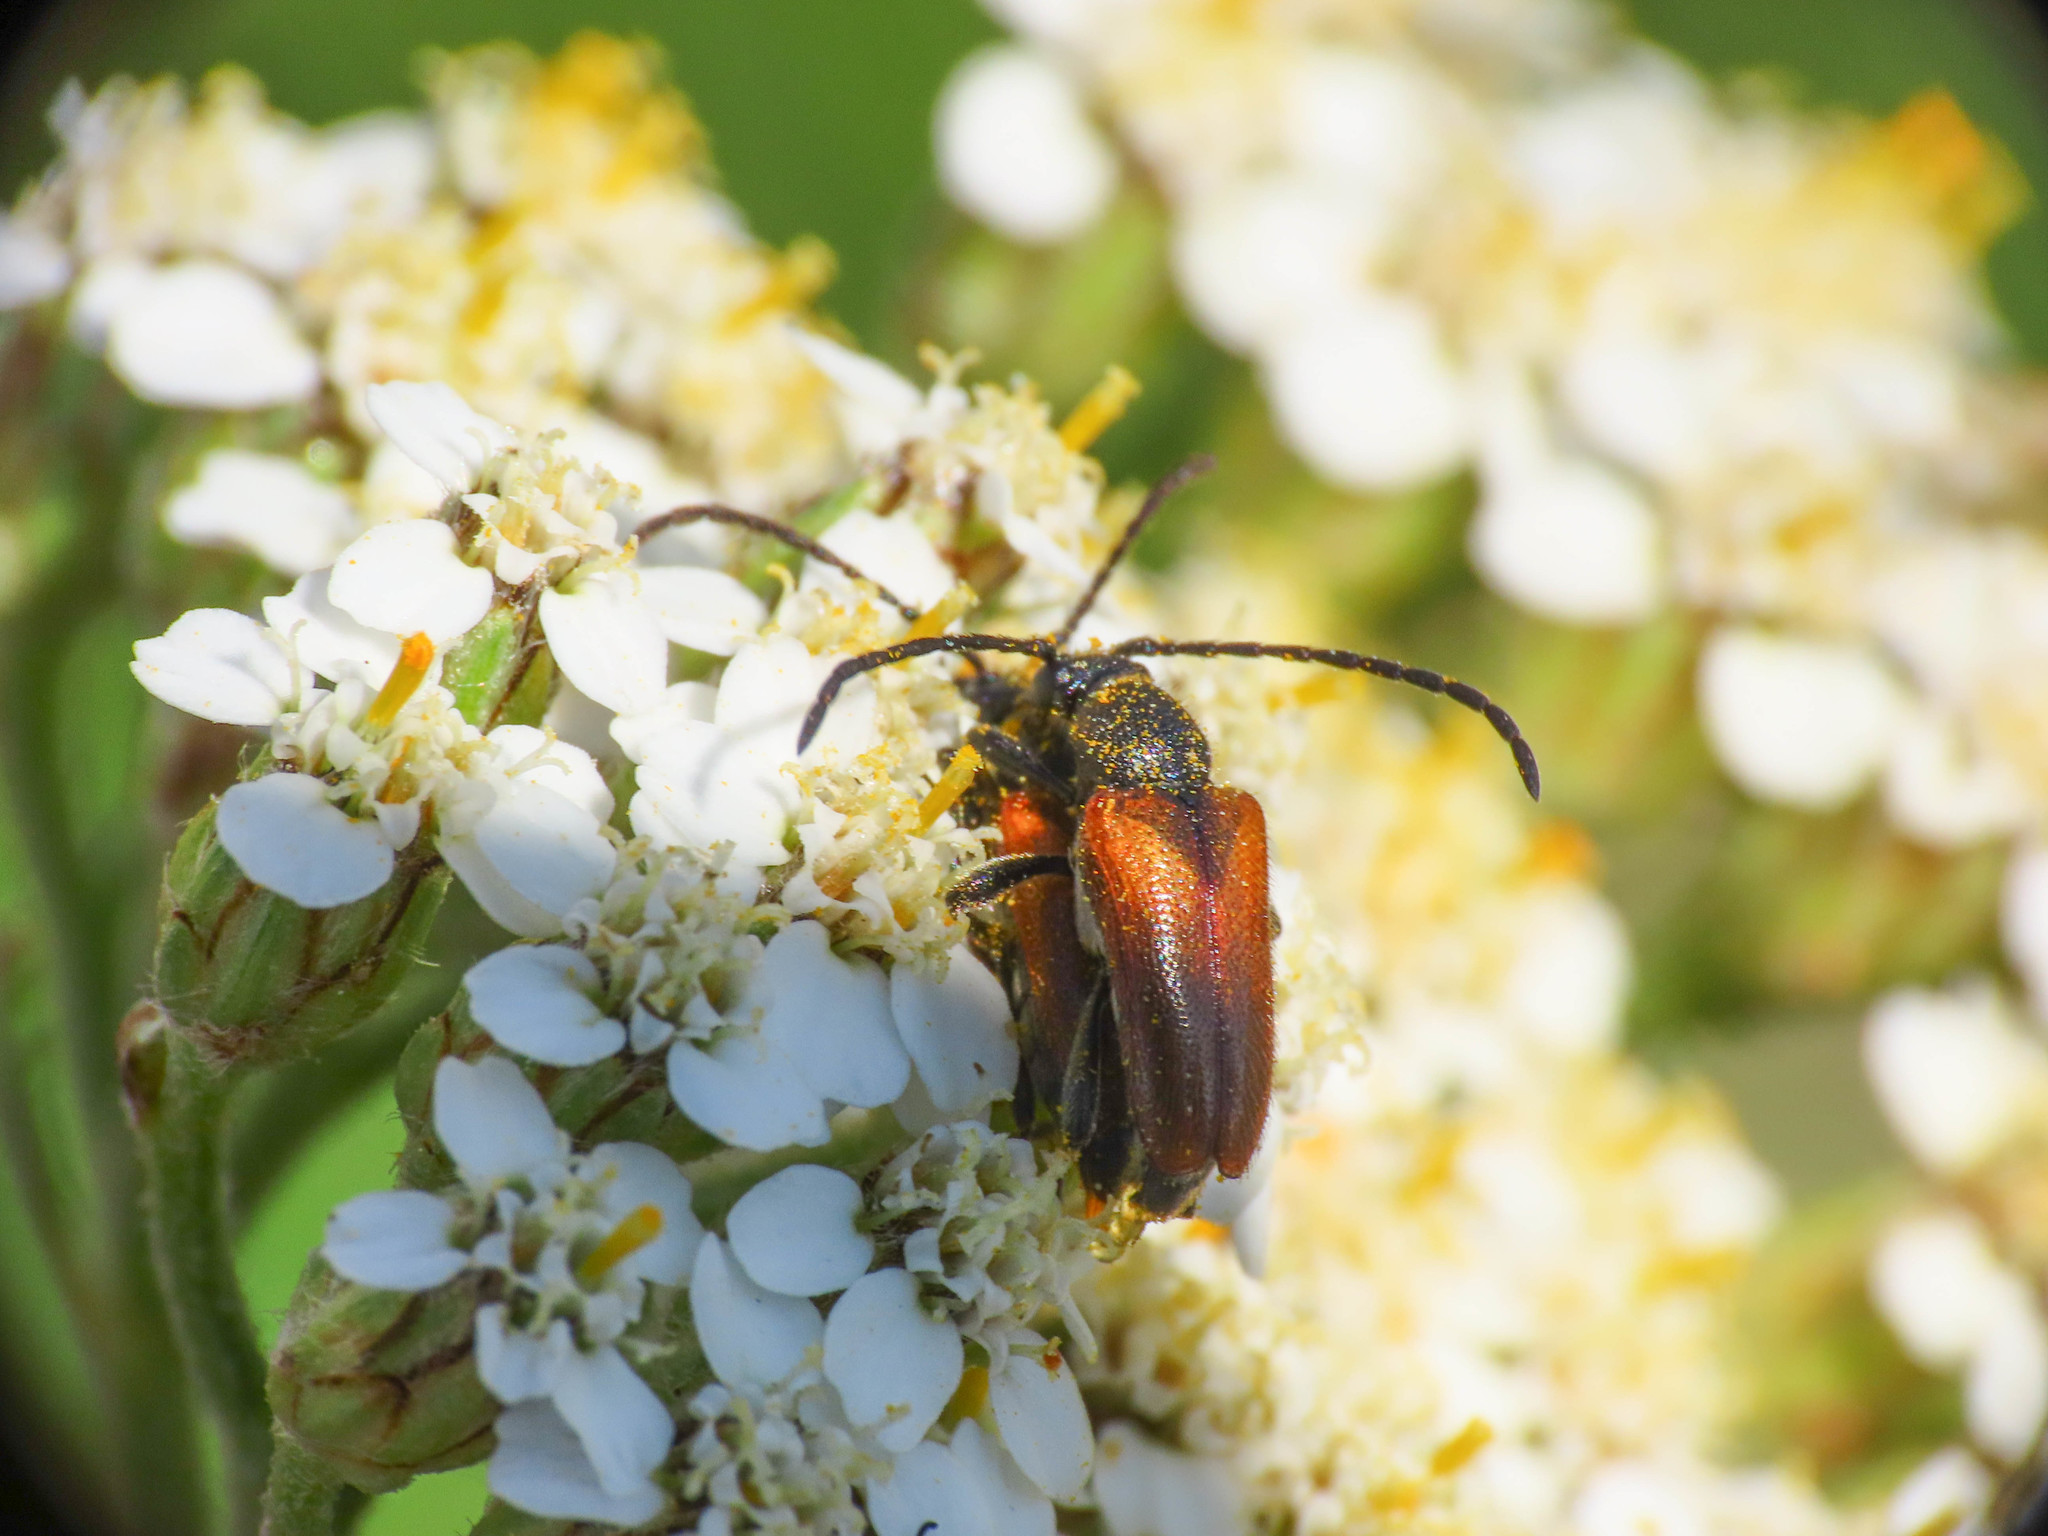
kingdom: Animalia
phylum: Arthropoda
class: Insecta
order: Coleoptera
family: Cerambycidae
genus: Pseudovadonia
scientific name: Pseudovadonia livida
